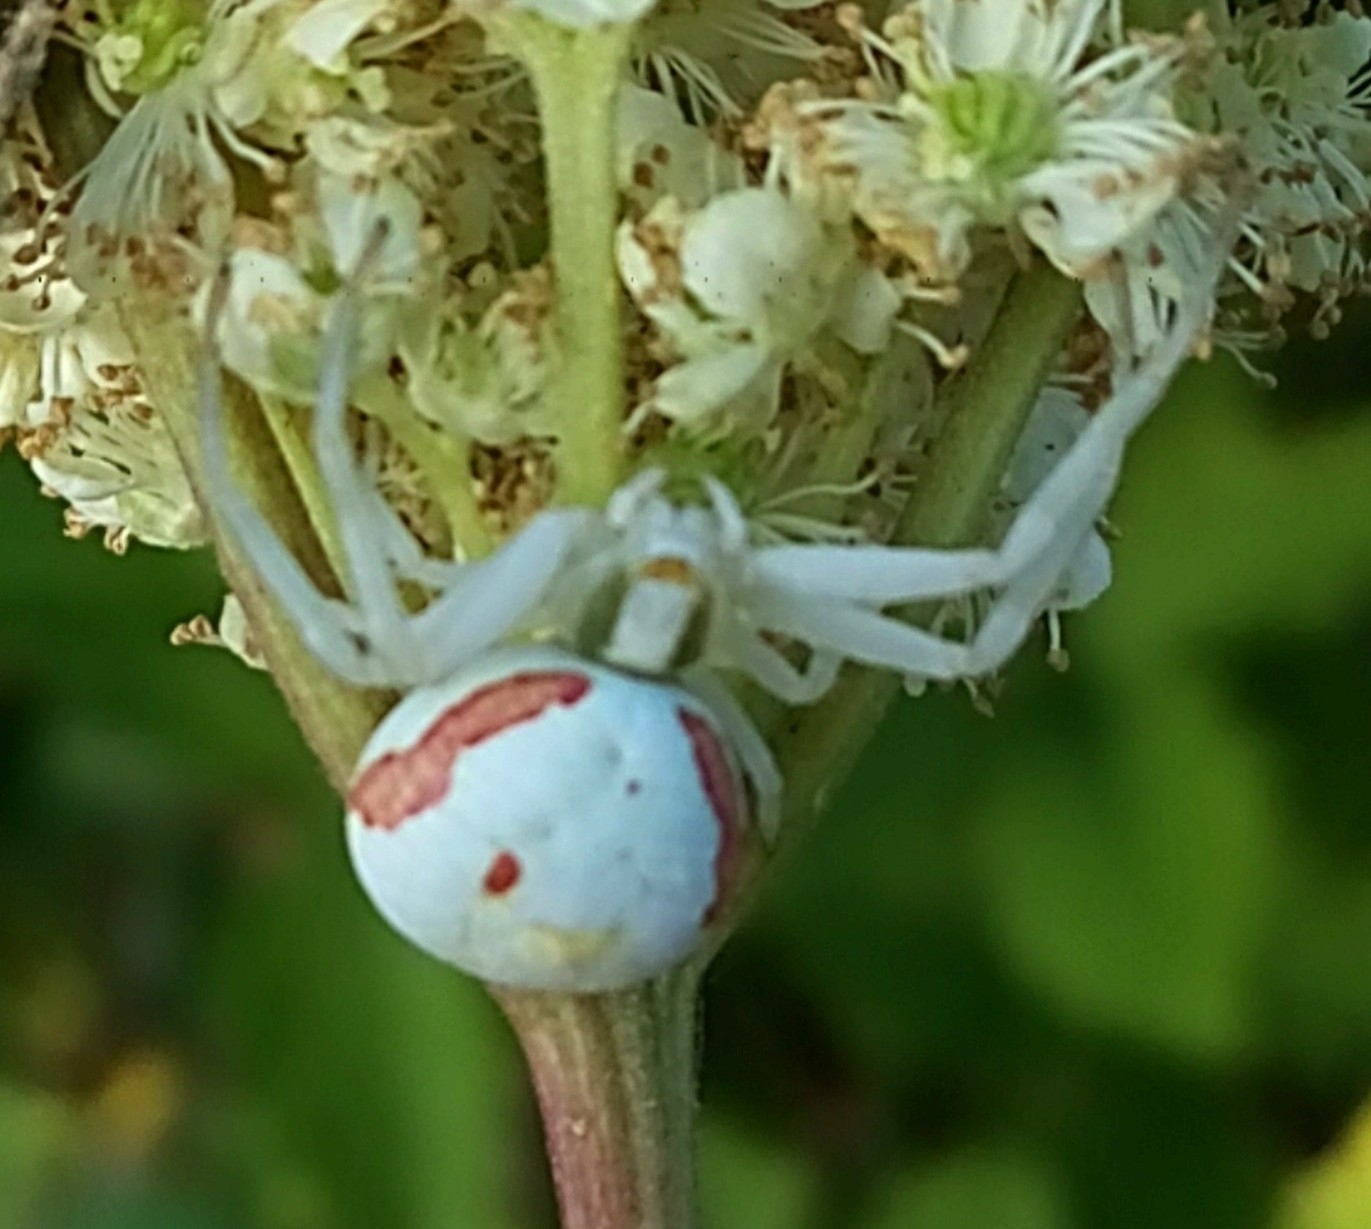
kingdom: Animalia
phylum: Arthropoda
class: Arachnida
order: Araneae
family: Thomisidae
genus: Misumena
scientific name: Misumena vatia
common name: Goldenrod crab spider
